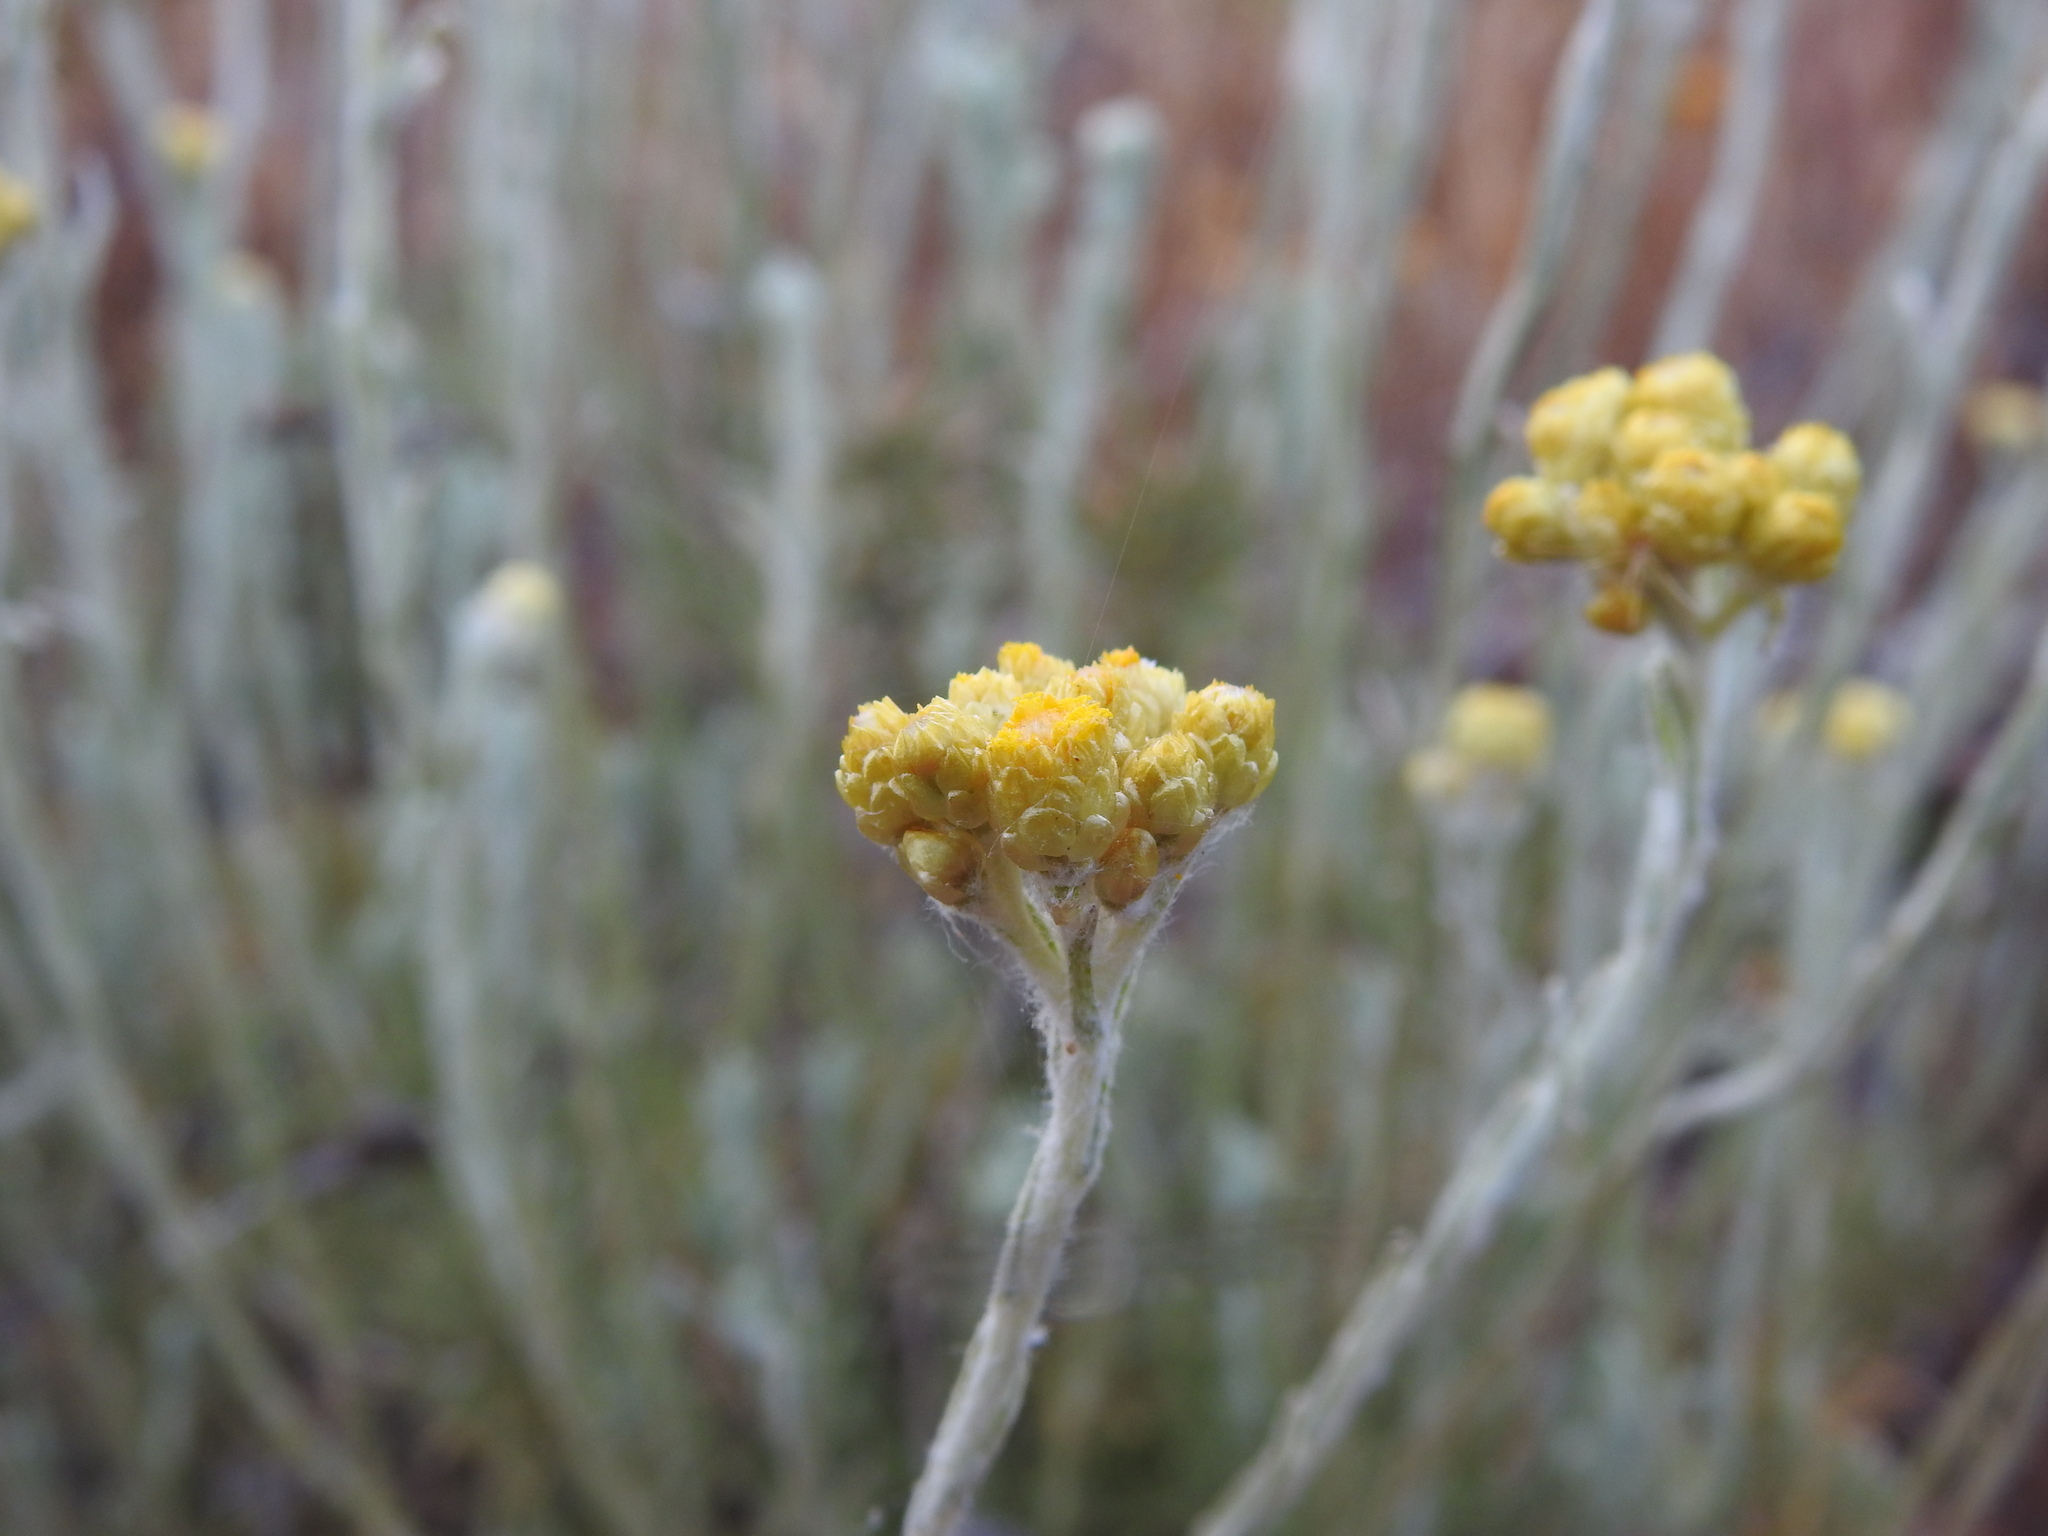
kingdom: Plantae
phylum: Tracheophyta
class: Magnoliopsida
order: Asterales
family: Asteraceae
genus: Helichrysum
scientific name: Helichrysum stoechas
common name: Goldilocks
